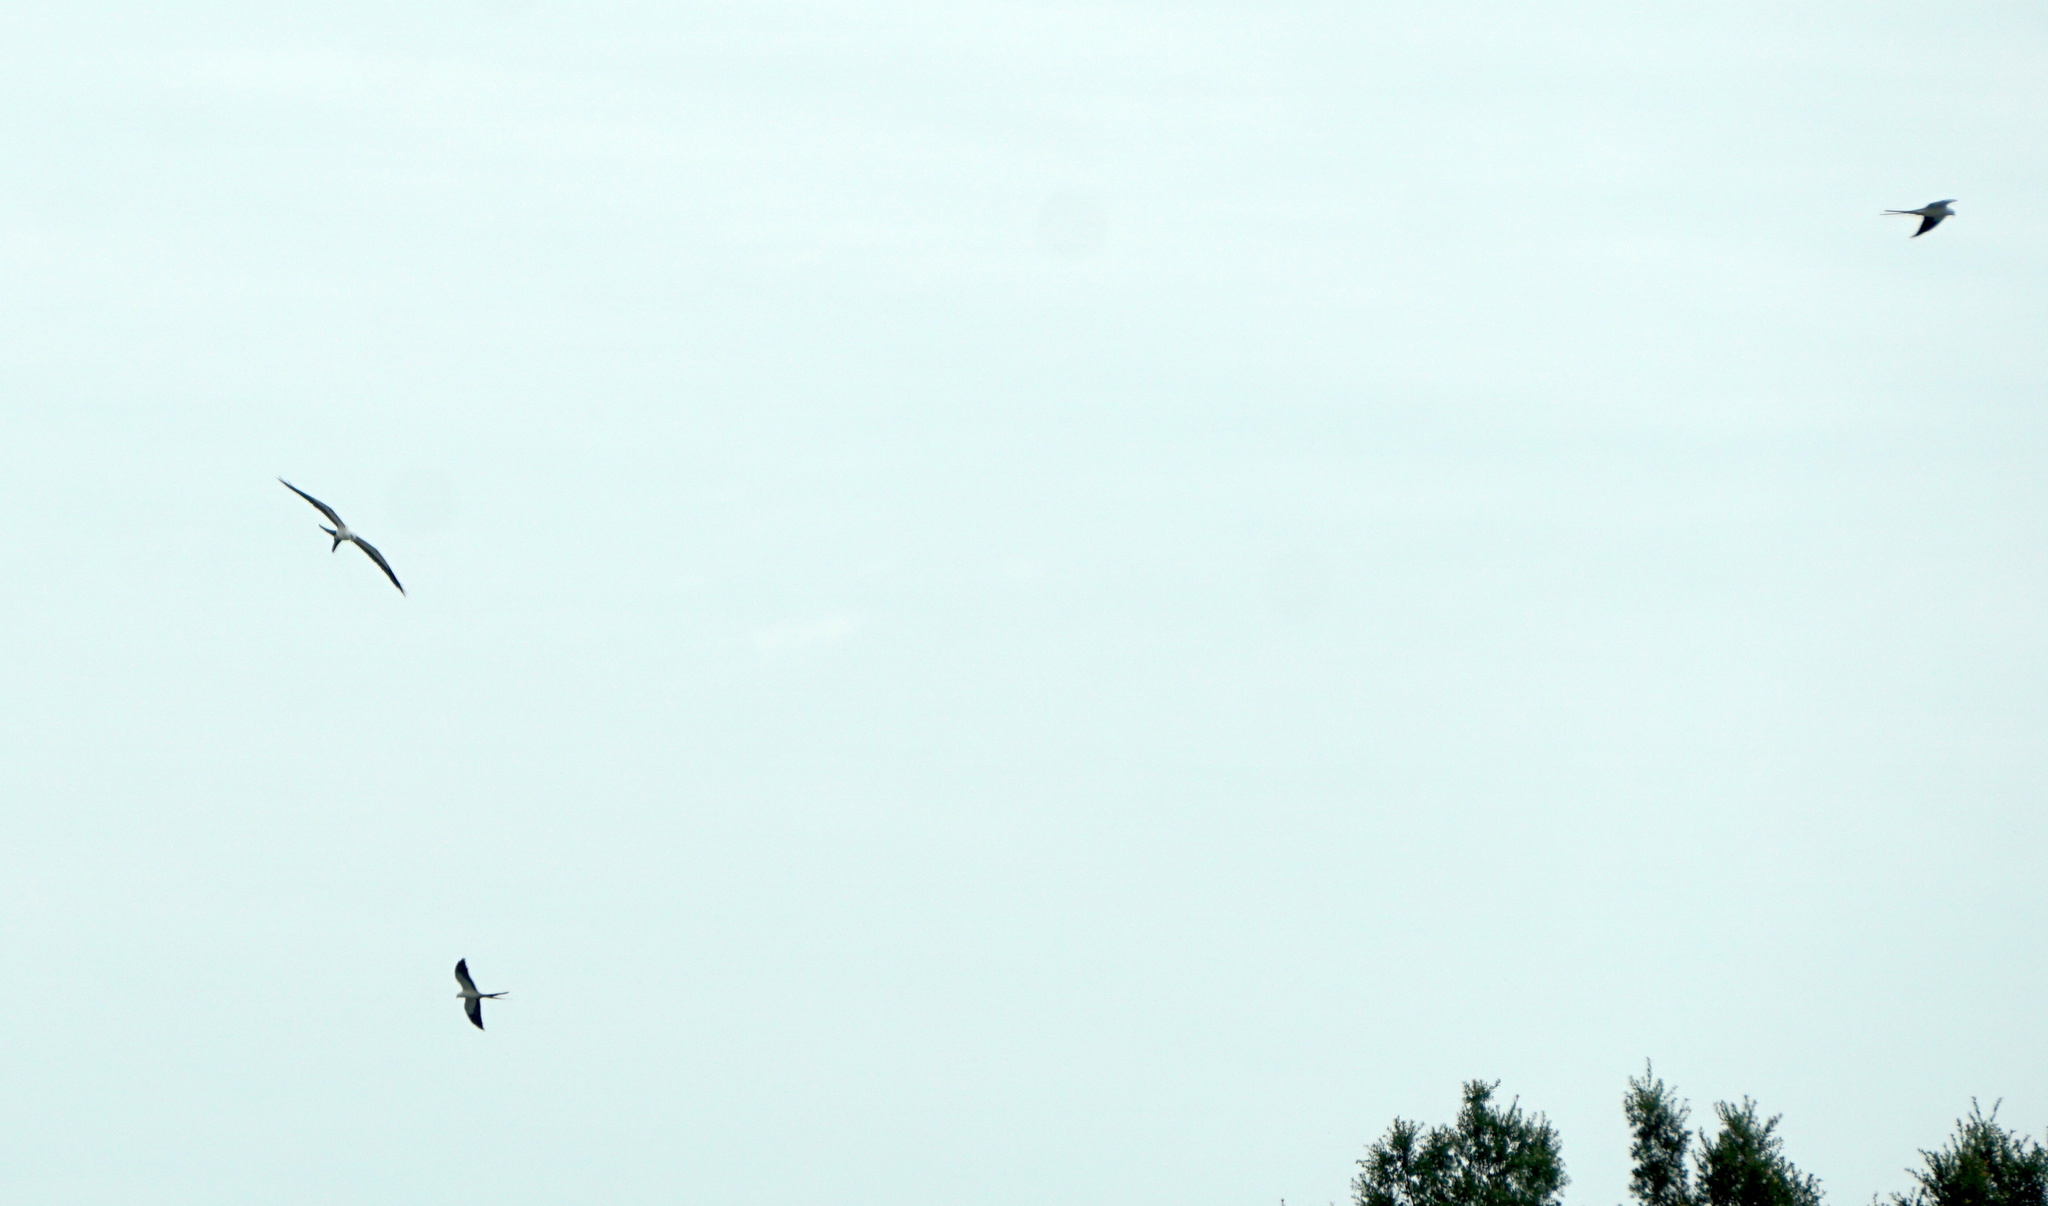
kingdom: Animalia
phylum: Chordata
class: Aves
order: Accipitriformes
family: Accipitridae
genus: Elanoides
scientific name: Elanoides forficatus
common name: Swallow-tailed kite
